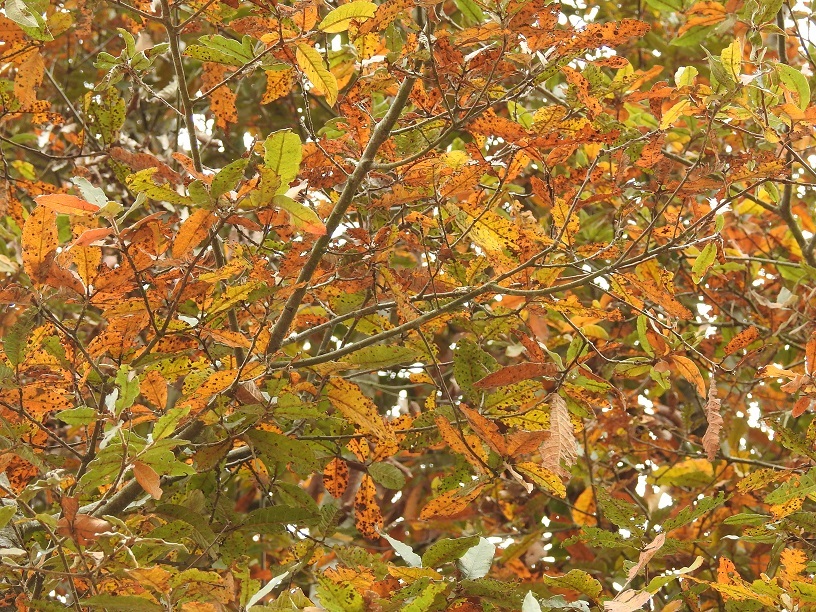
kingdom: Plantae
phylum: Tracheophyta
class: Magnoliopsida
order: Fagales
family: Fagaceae
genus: Quercus
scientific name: Quercus crispipilis
